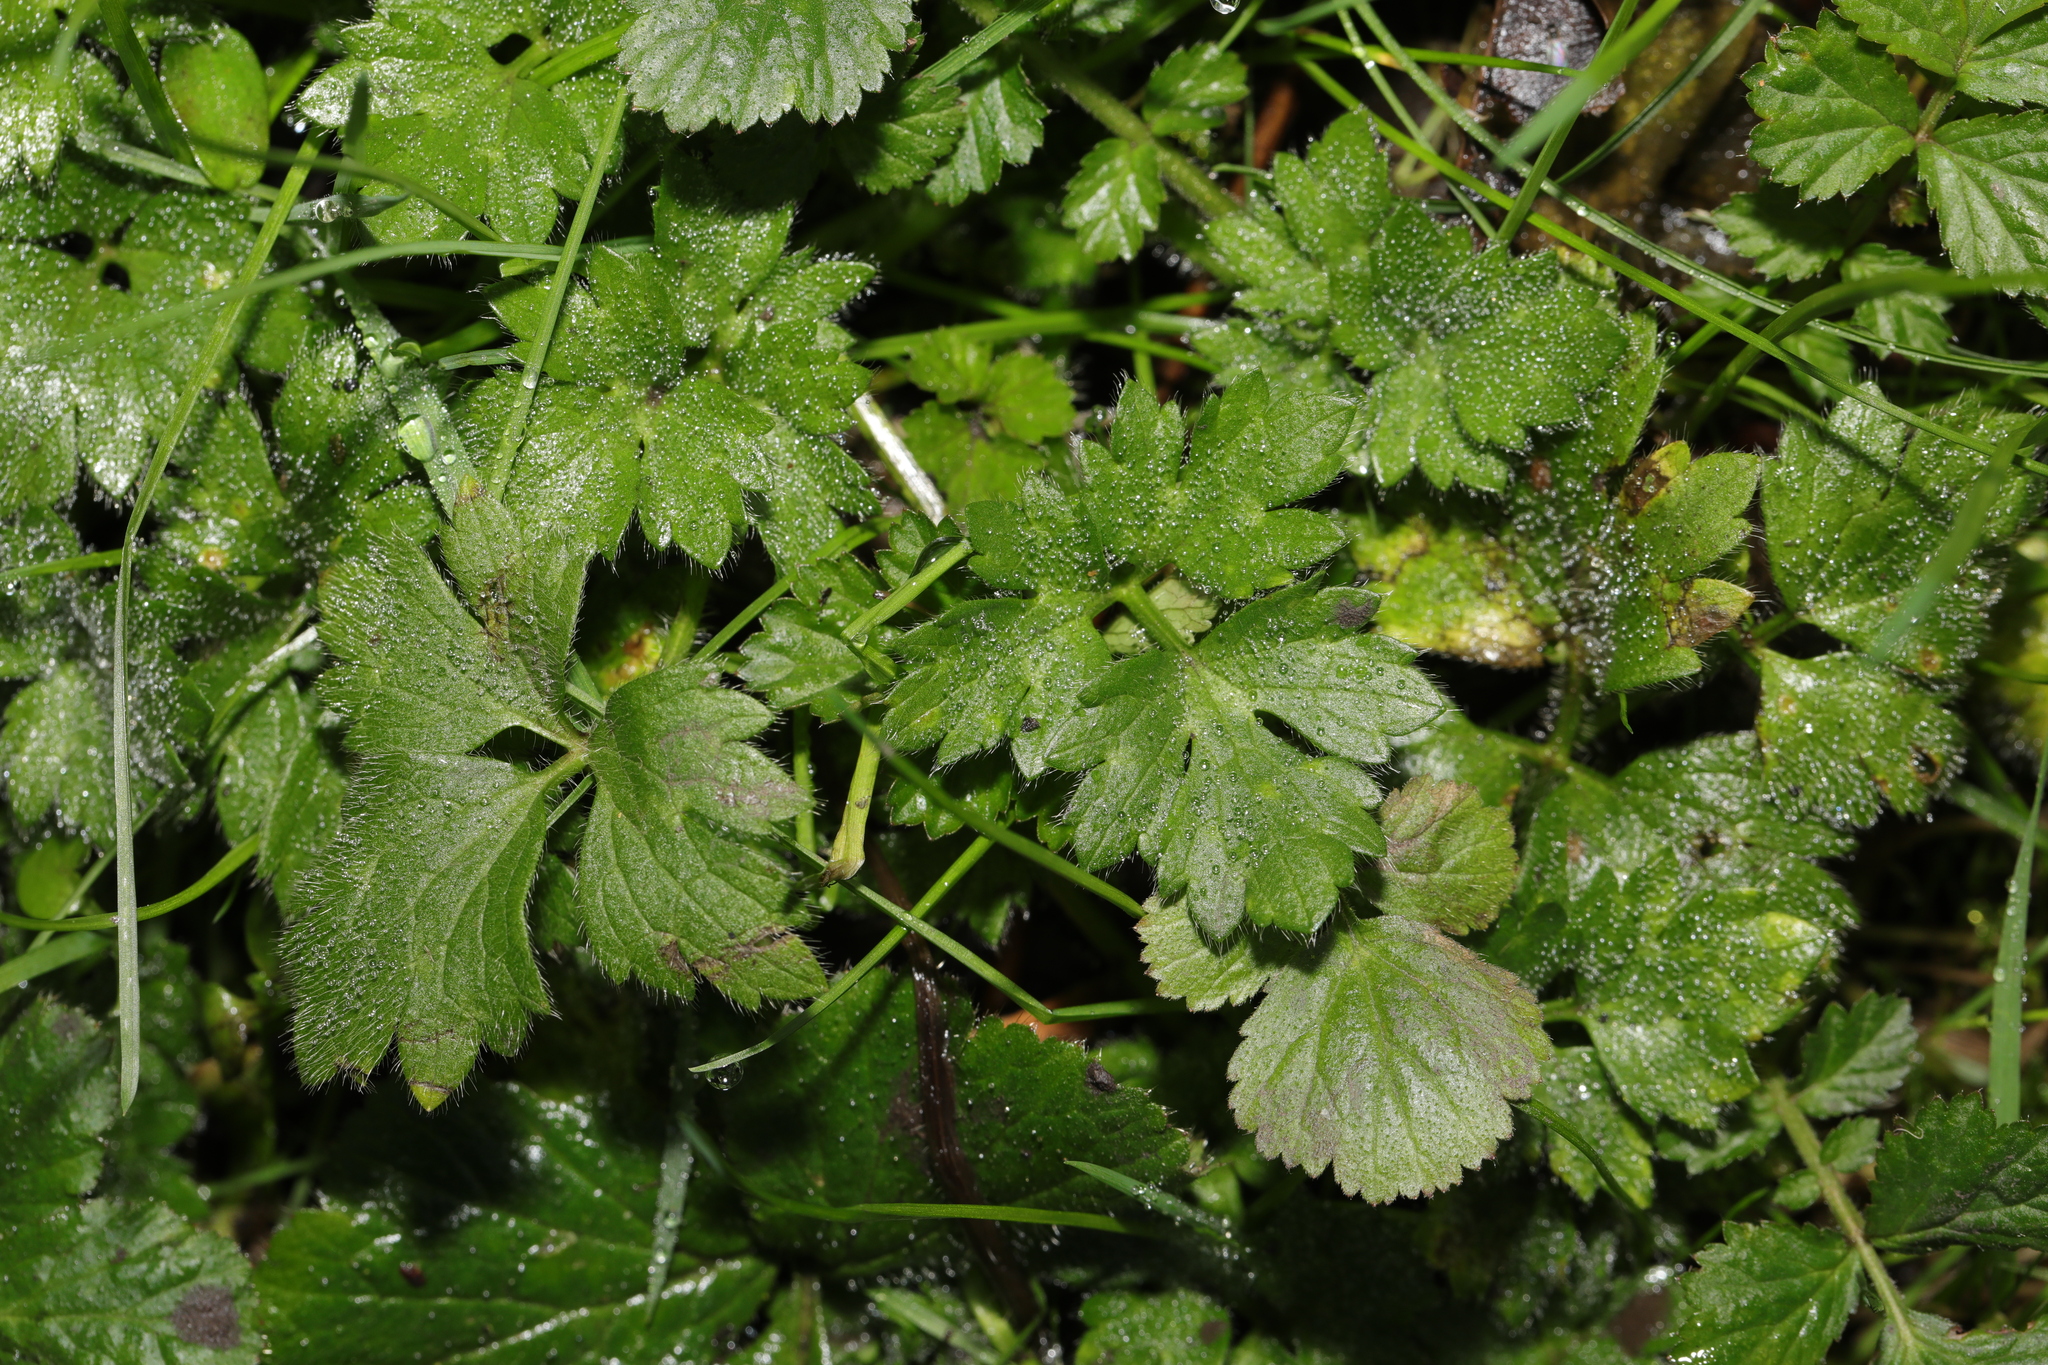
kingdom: Plantae
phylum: Tracheophyta
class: Magnoliopsida
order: Ranunculales
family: Ranunculaceae
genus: Ranunculus
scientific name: Ranunculus repens
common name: Creeping buttercup
